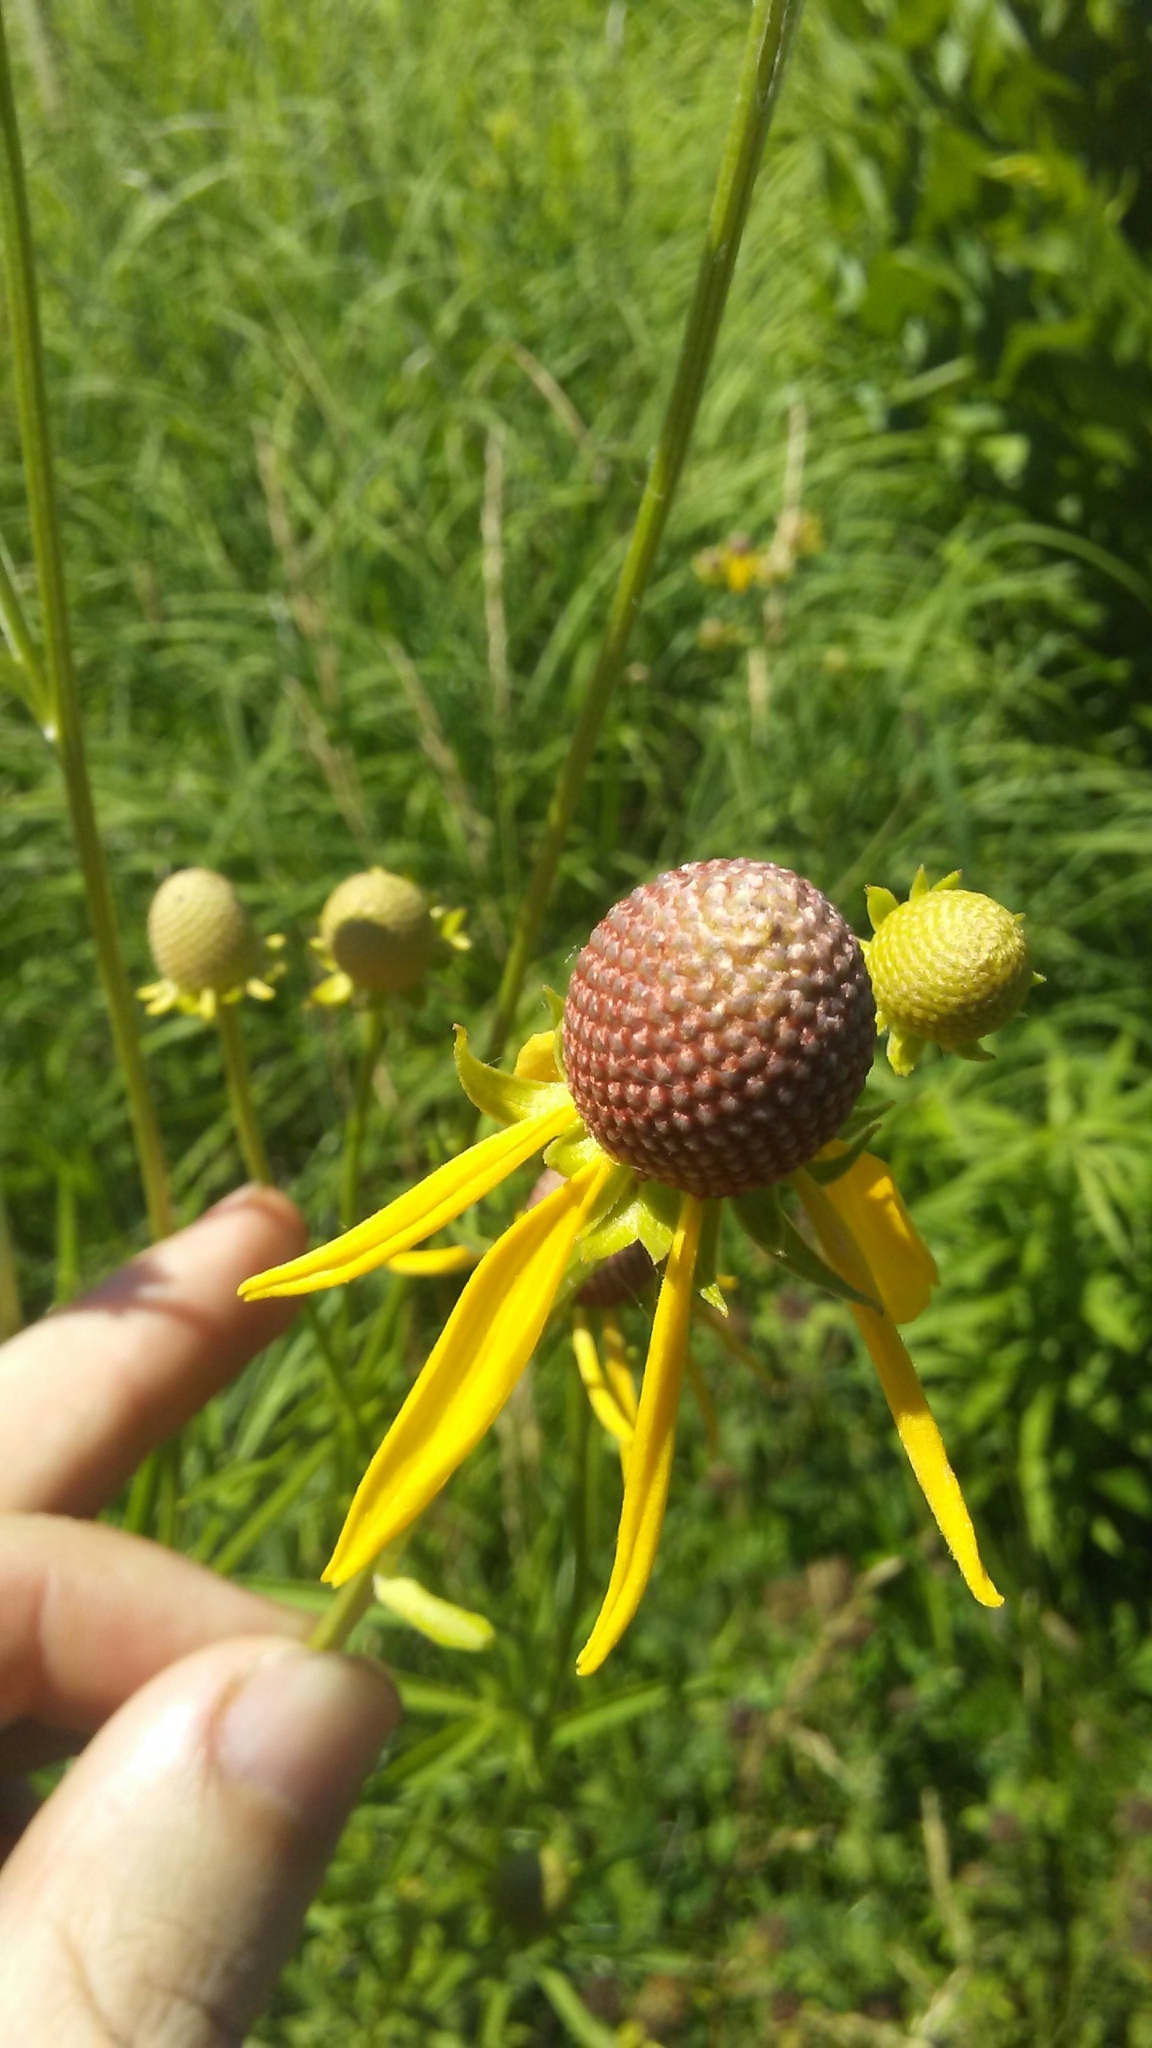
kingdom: Plantae
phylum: Tracheophyta
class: Magnoliopsida
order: Asterales
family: Asteraceae
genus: Ratibida
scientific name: Ratibida pinnata
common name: Drooping prairie-coneflower
